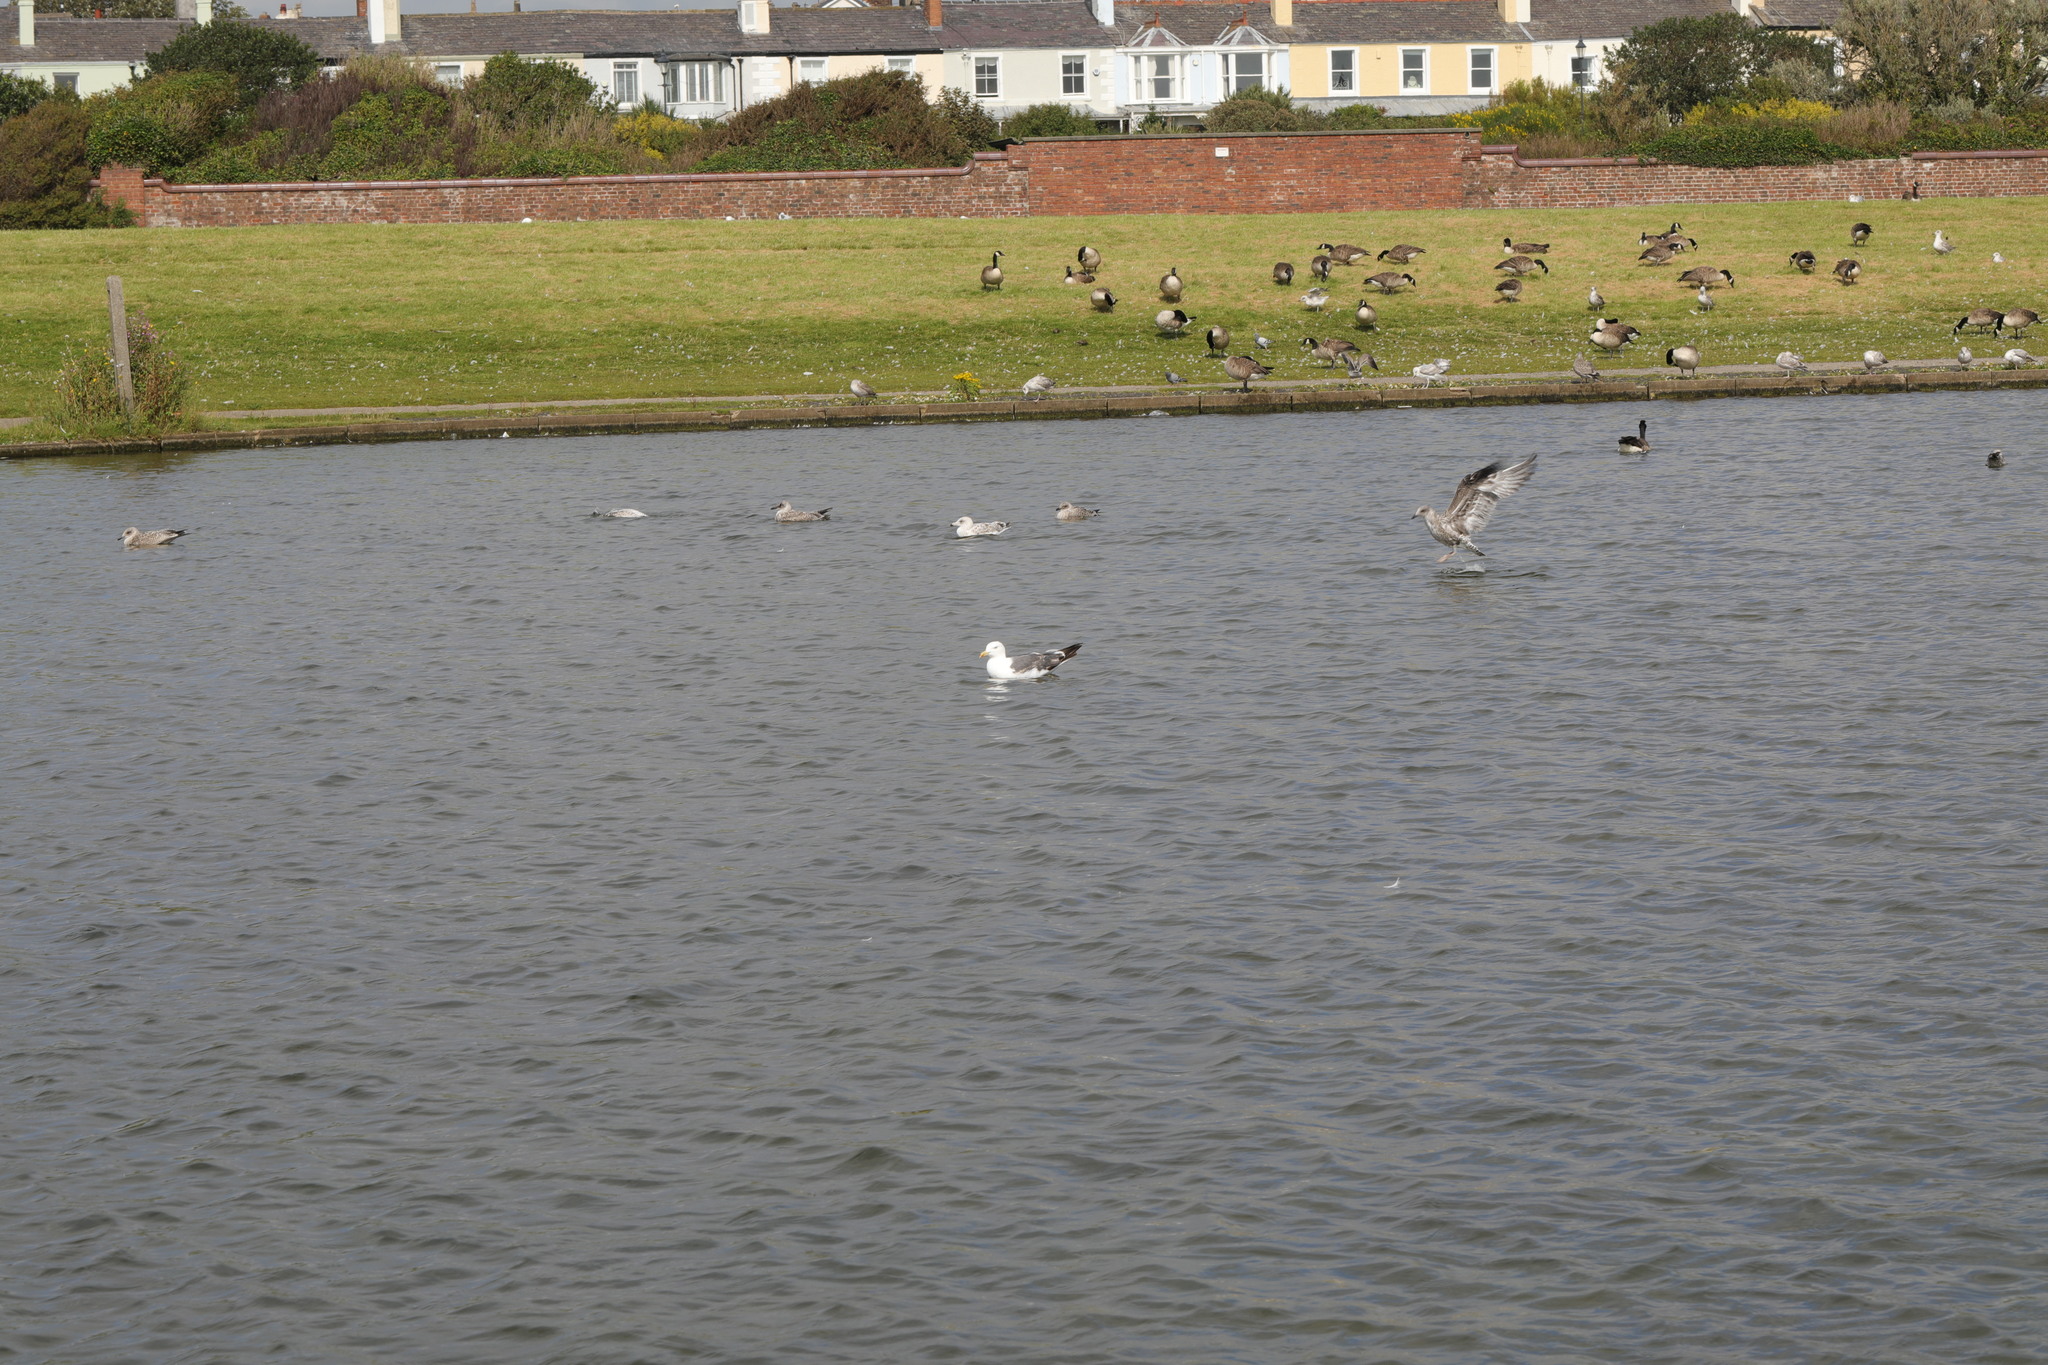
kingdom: Animalia
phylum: Chordata
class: Aves
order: Charadriiformes
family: Laridae
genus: Larus
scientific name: Larus fuscus
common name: Lesser black-backed gull
